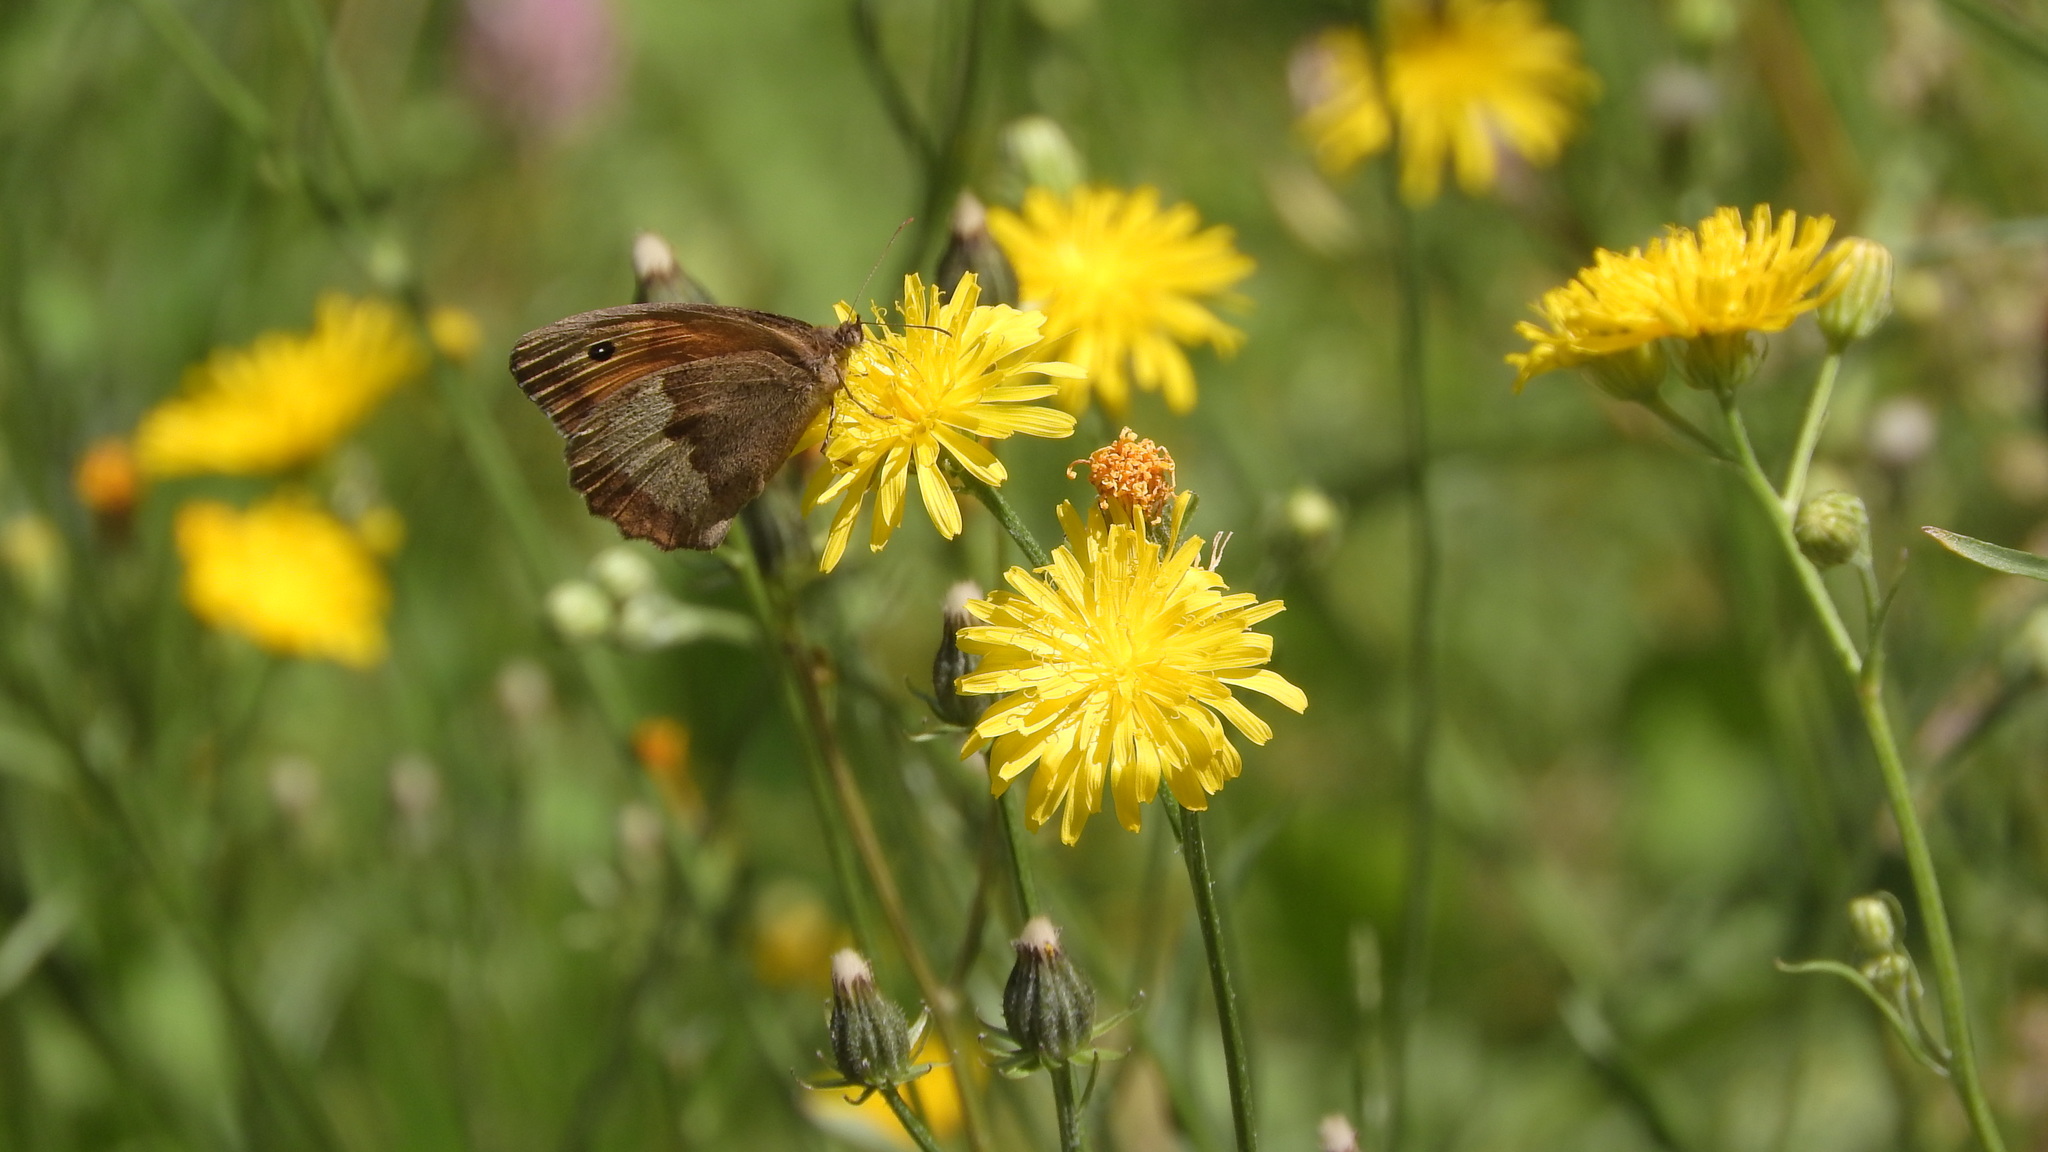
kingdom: Animalia
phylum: Arthropoda
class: Insecta
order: Lepidoptera
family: Nymphalidae
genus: Maniola
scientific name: Maniola jurtina
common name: Meadow brown
